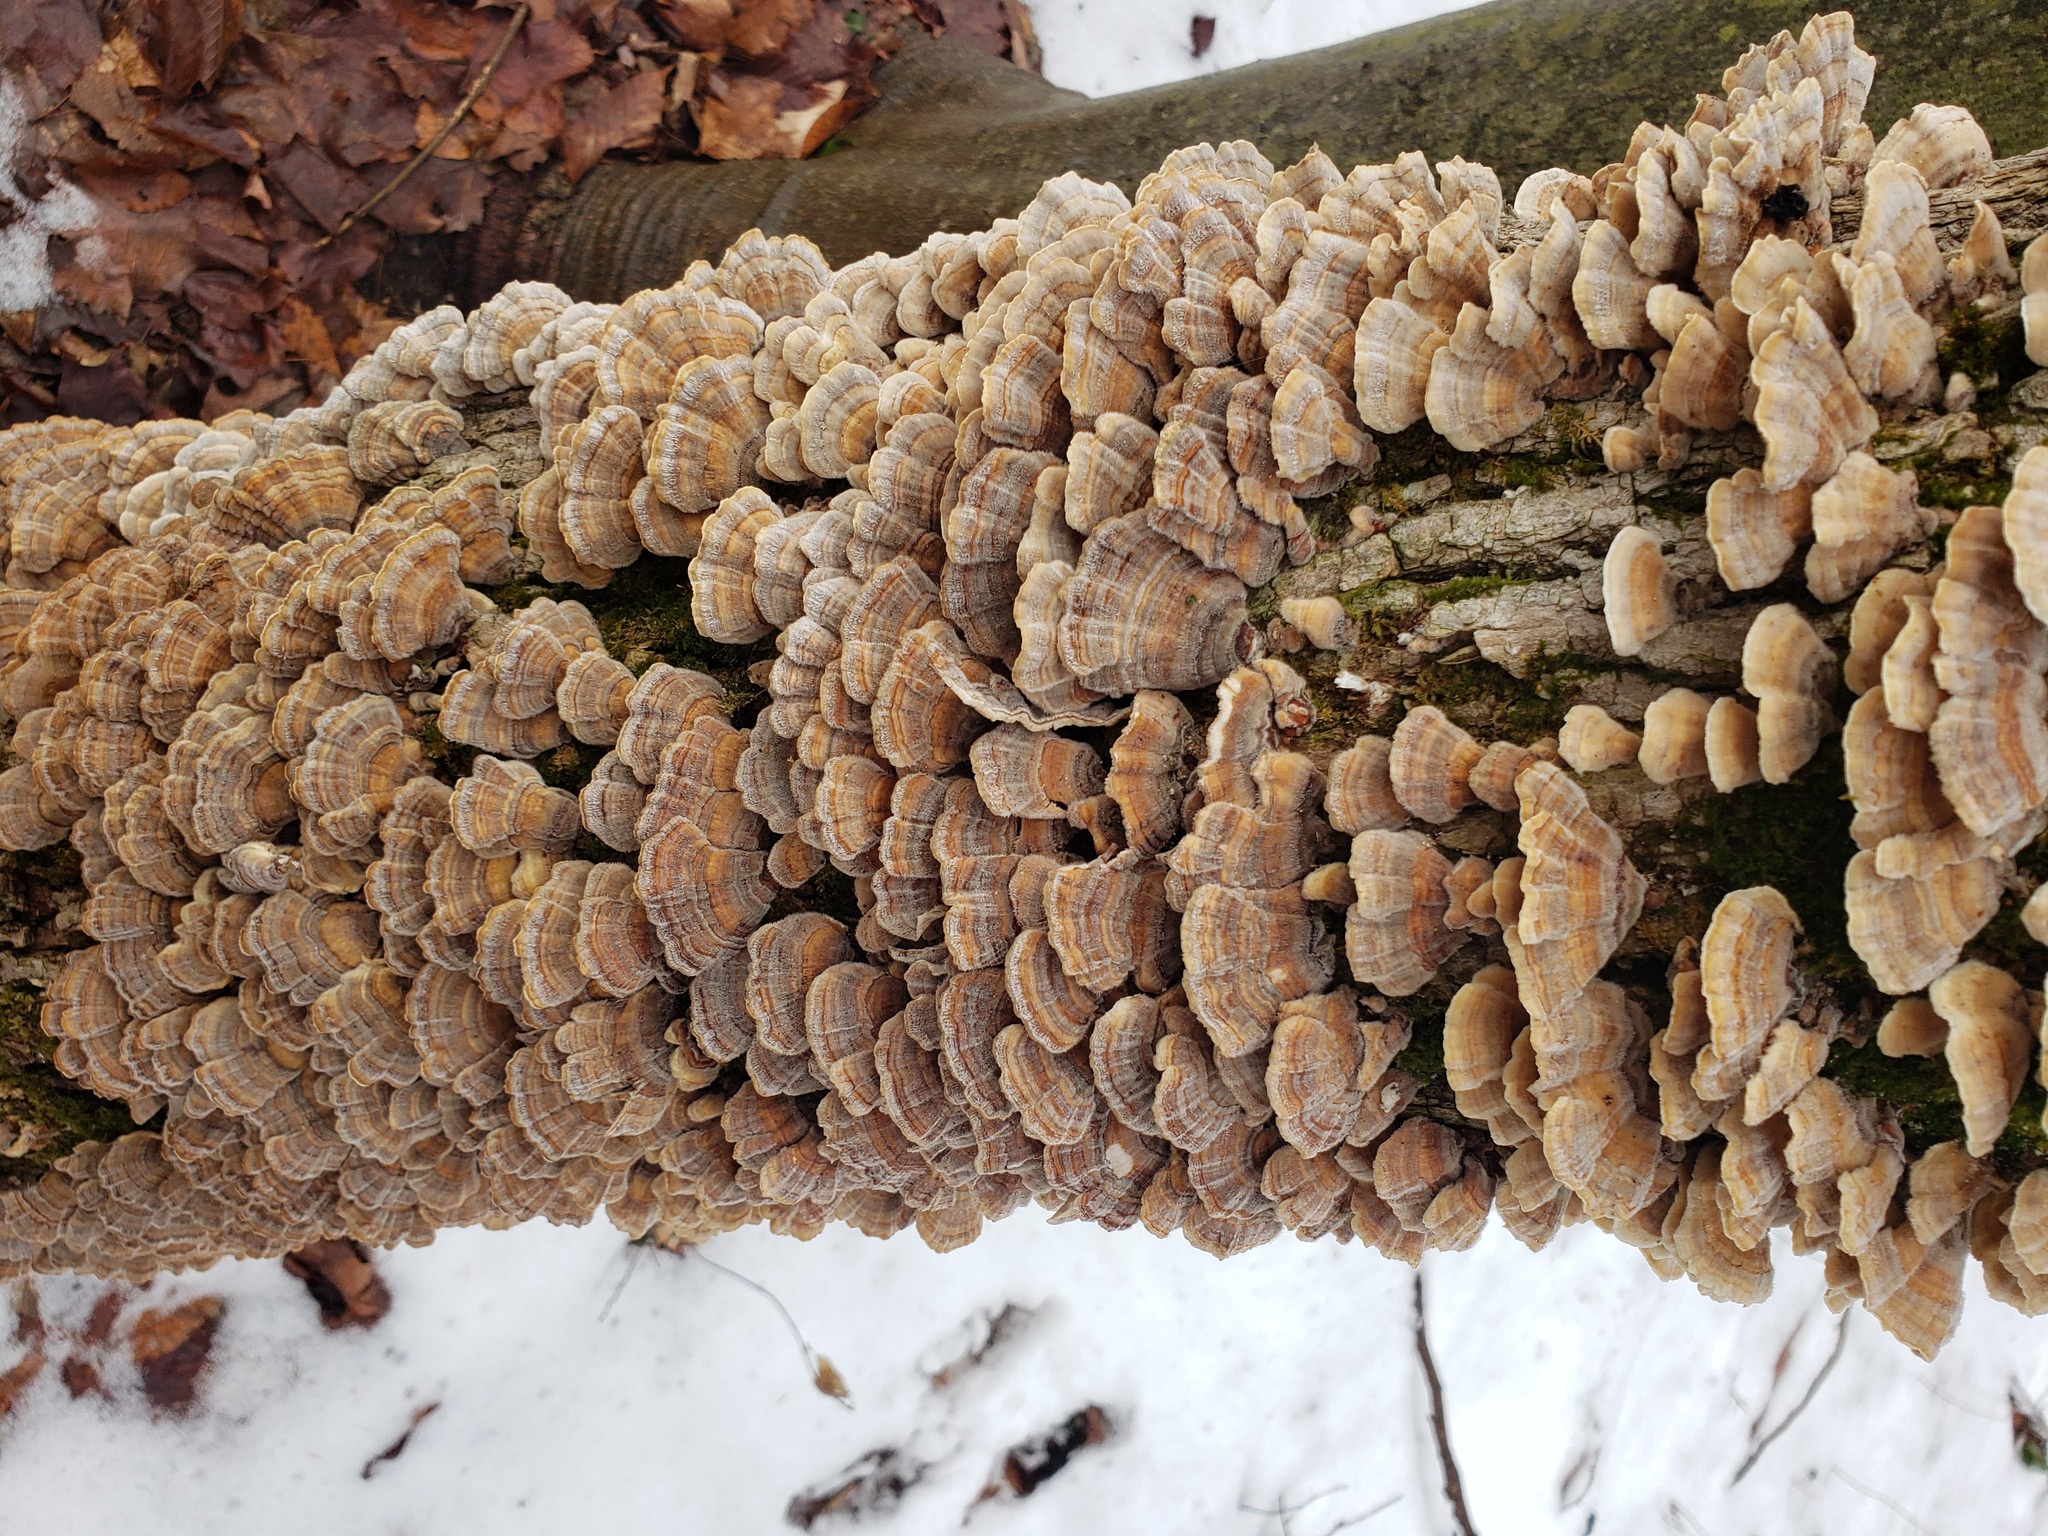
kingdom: Fungi
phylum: Basidiomycota
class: Agaricomycetes
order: Polyporales
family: Polyporaceae
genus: Trametes
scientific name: Trametes versicolor
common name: Turkeytail
